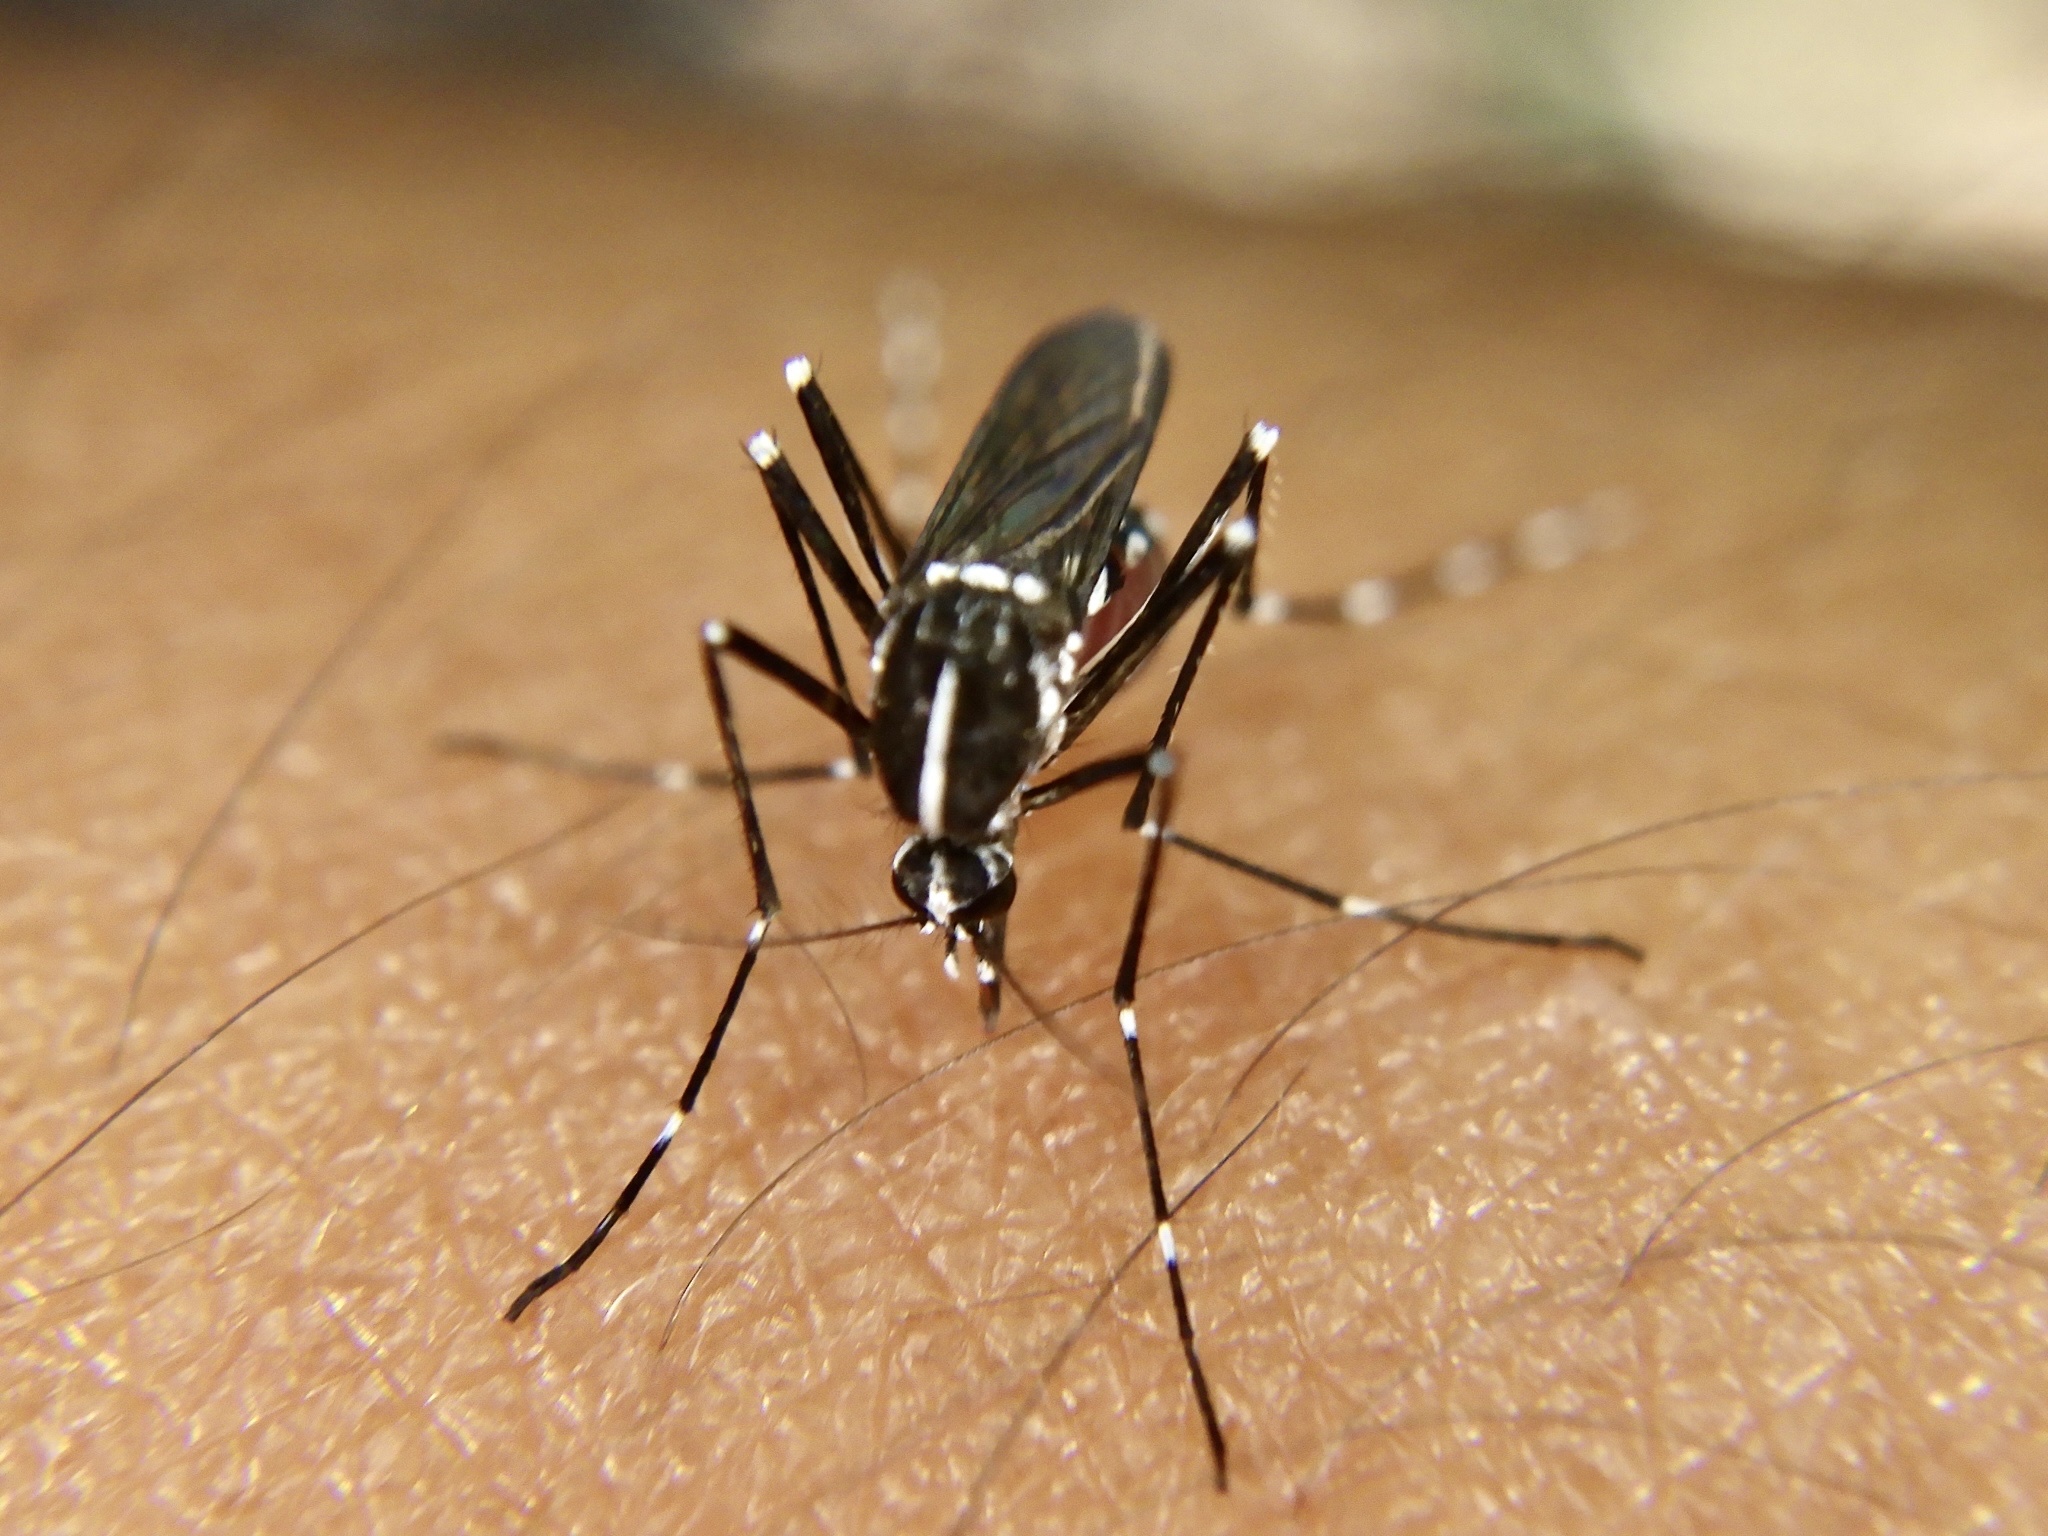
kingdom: Animalia
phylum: Arthropoda
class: Insecta
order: Diptera
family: Culicidae
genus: Aedes
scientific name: Aedes albopictus
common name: Tiger mosquito
